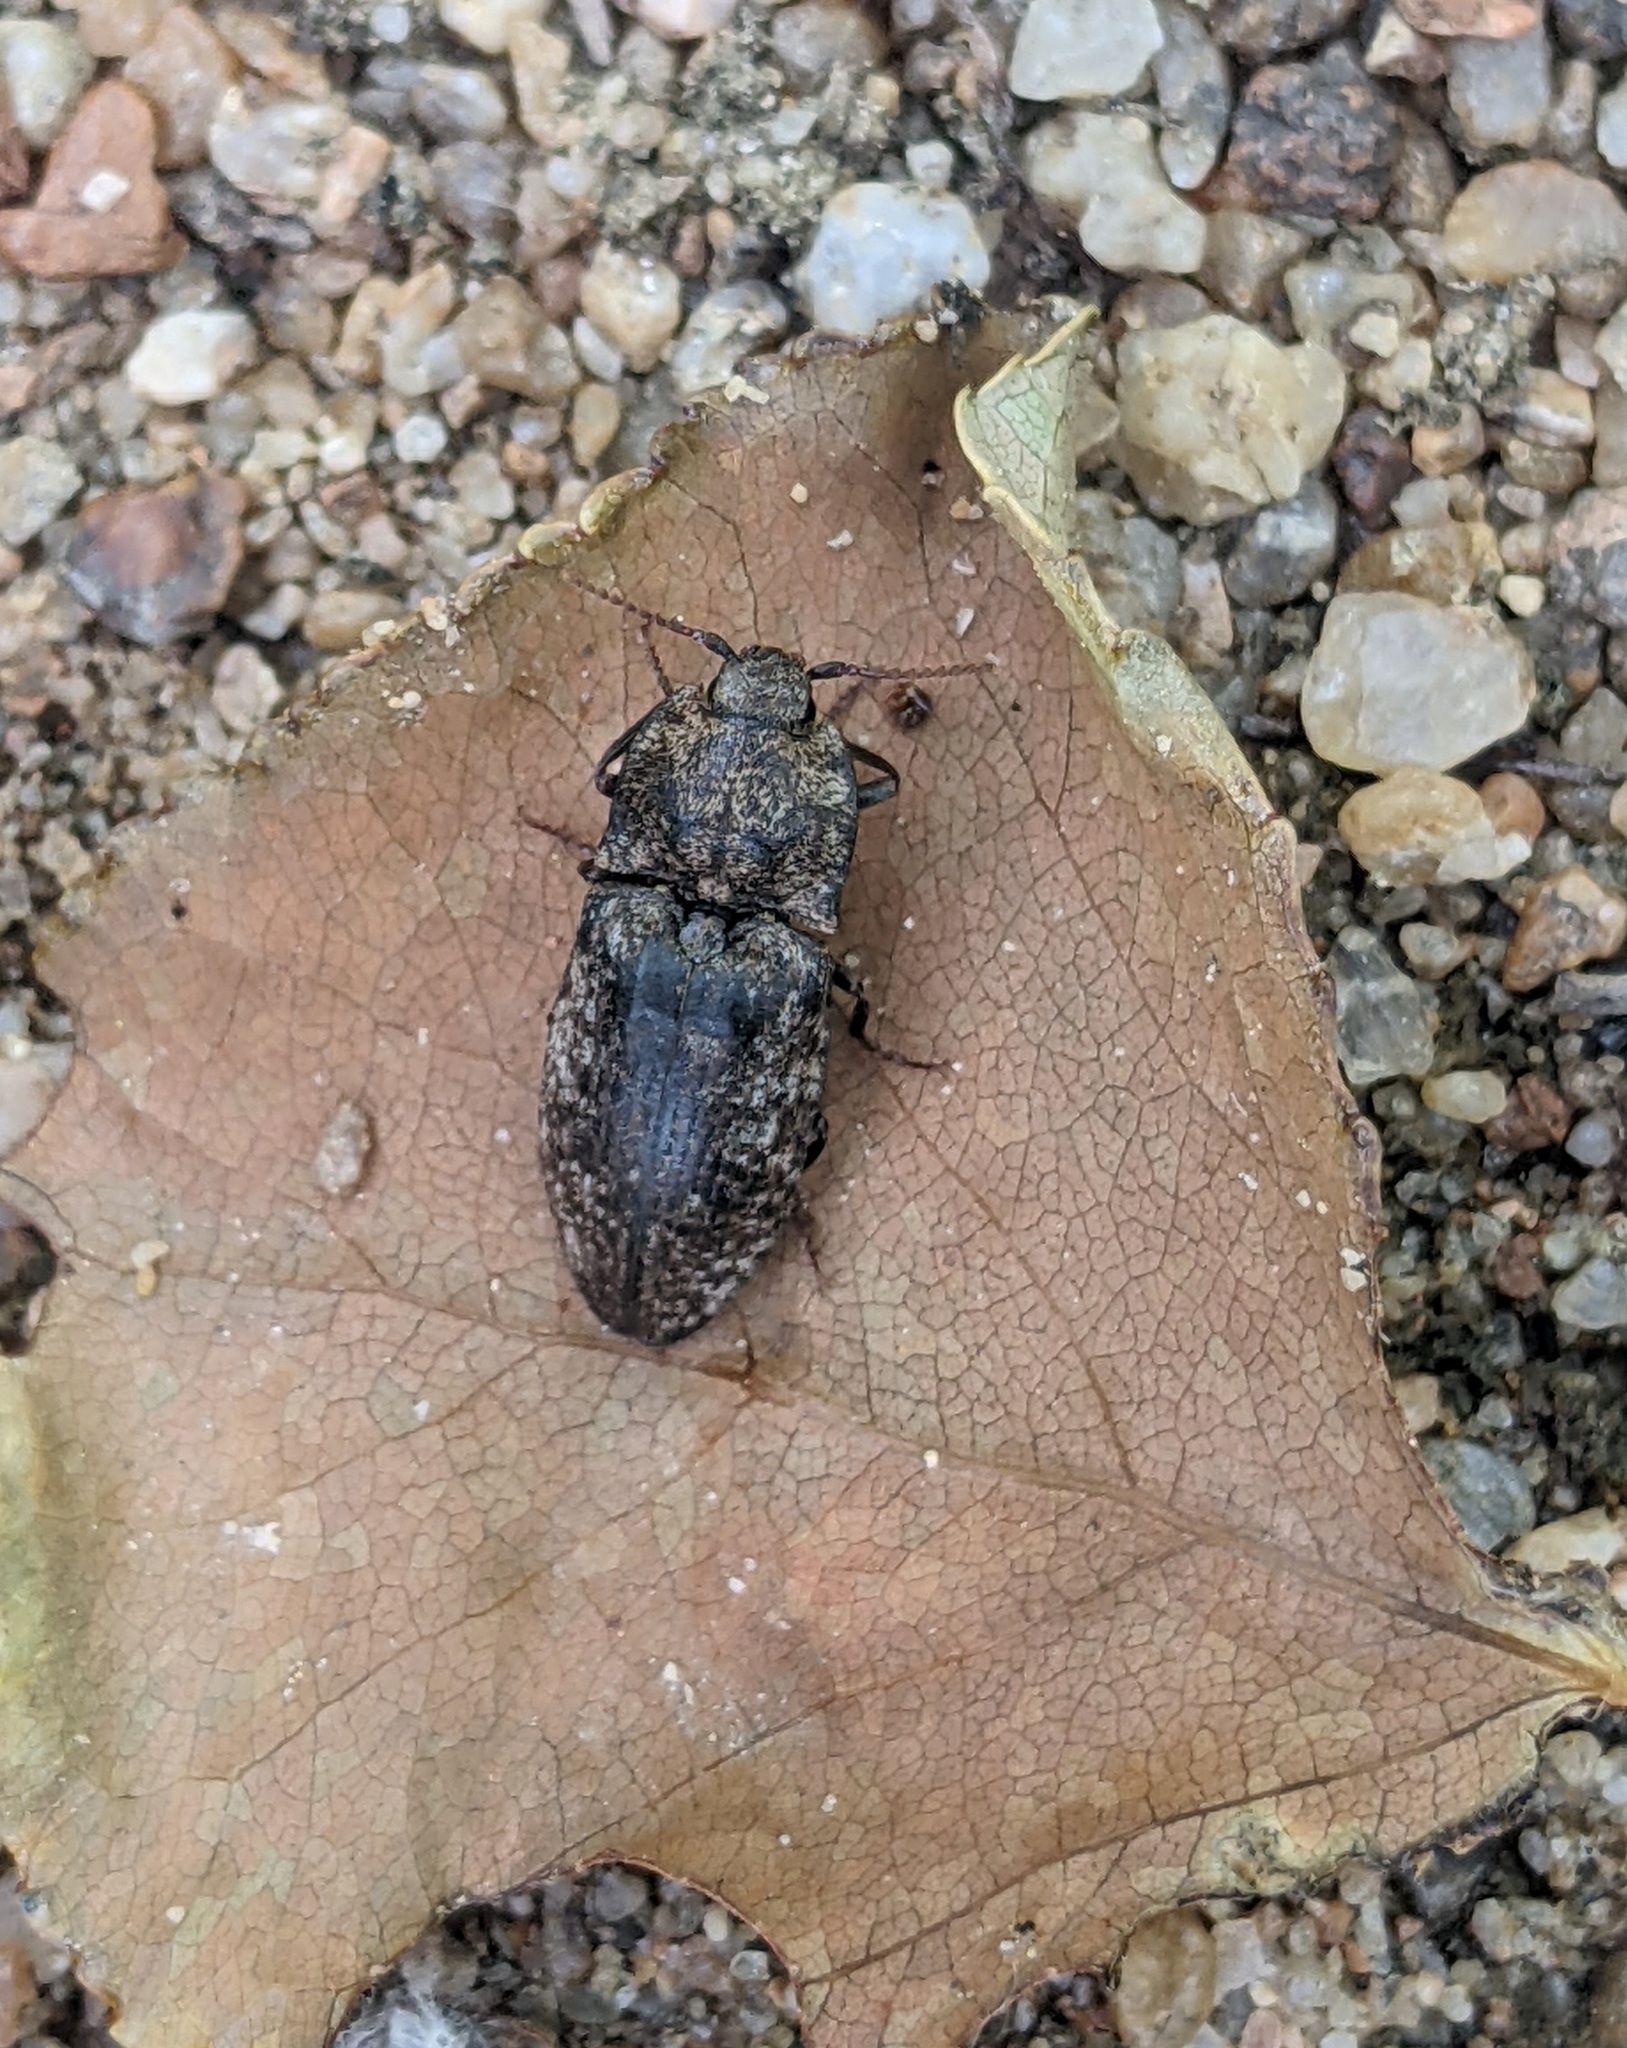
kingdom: Animalia
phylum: Arthropoda
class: Insecta
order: Coleoptera
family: Elateridae
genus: Agrypnus
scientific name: Agrypnus murinus
